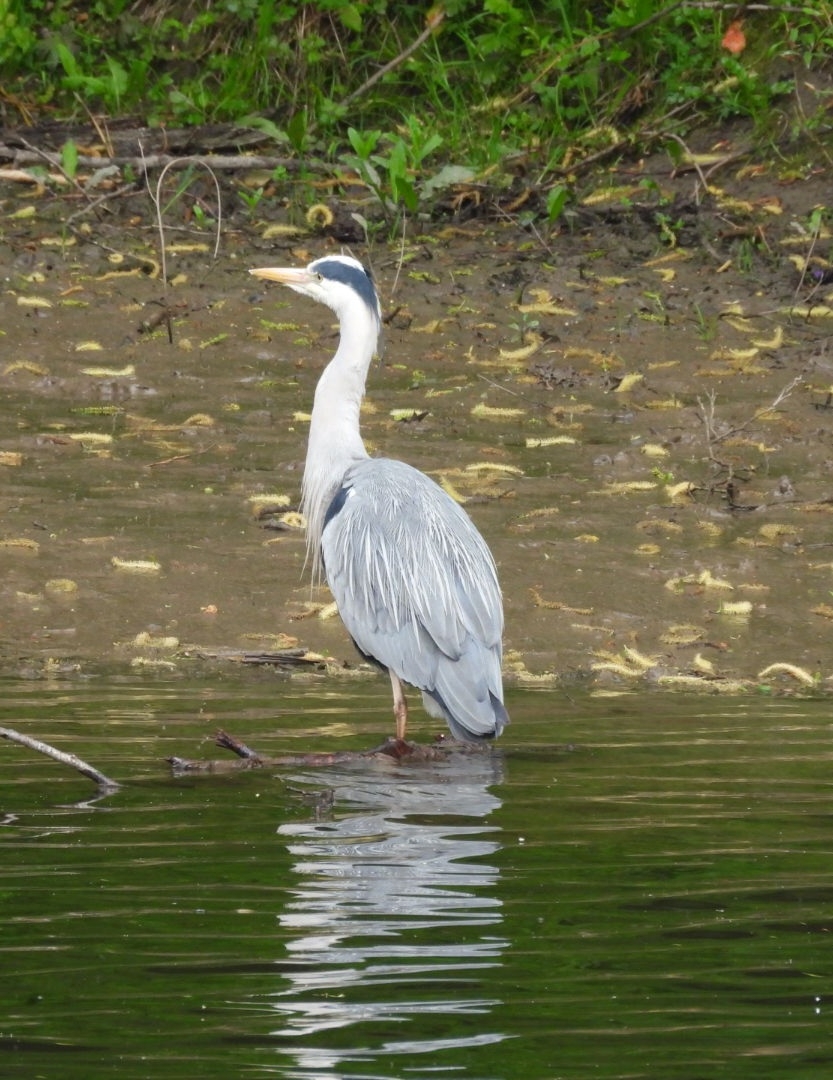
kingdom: Animalia
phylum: Chordata
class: Aves
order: Pelecaniformes
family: Ardeidae
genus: Ardea
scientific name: Ardea cinerea
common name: Grey heron
